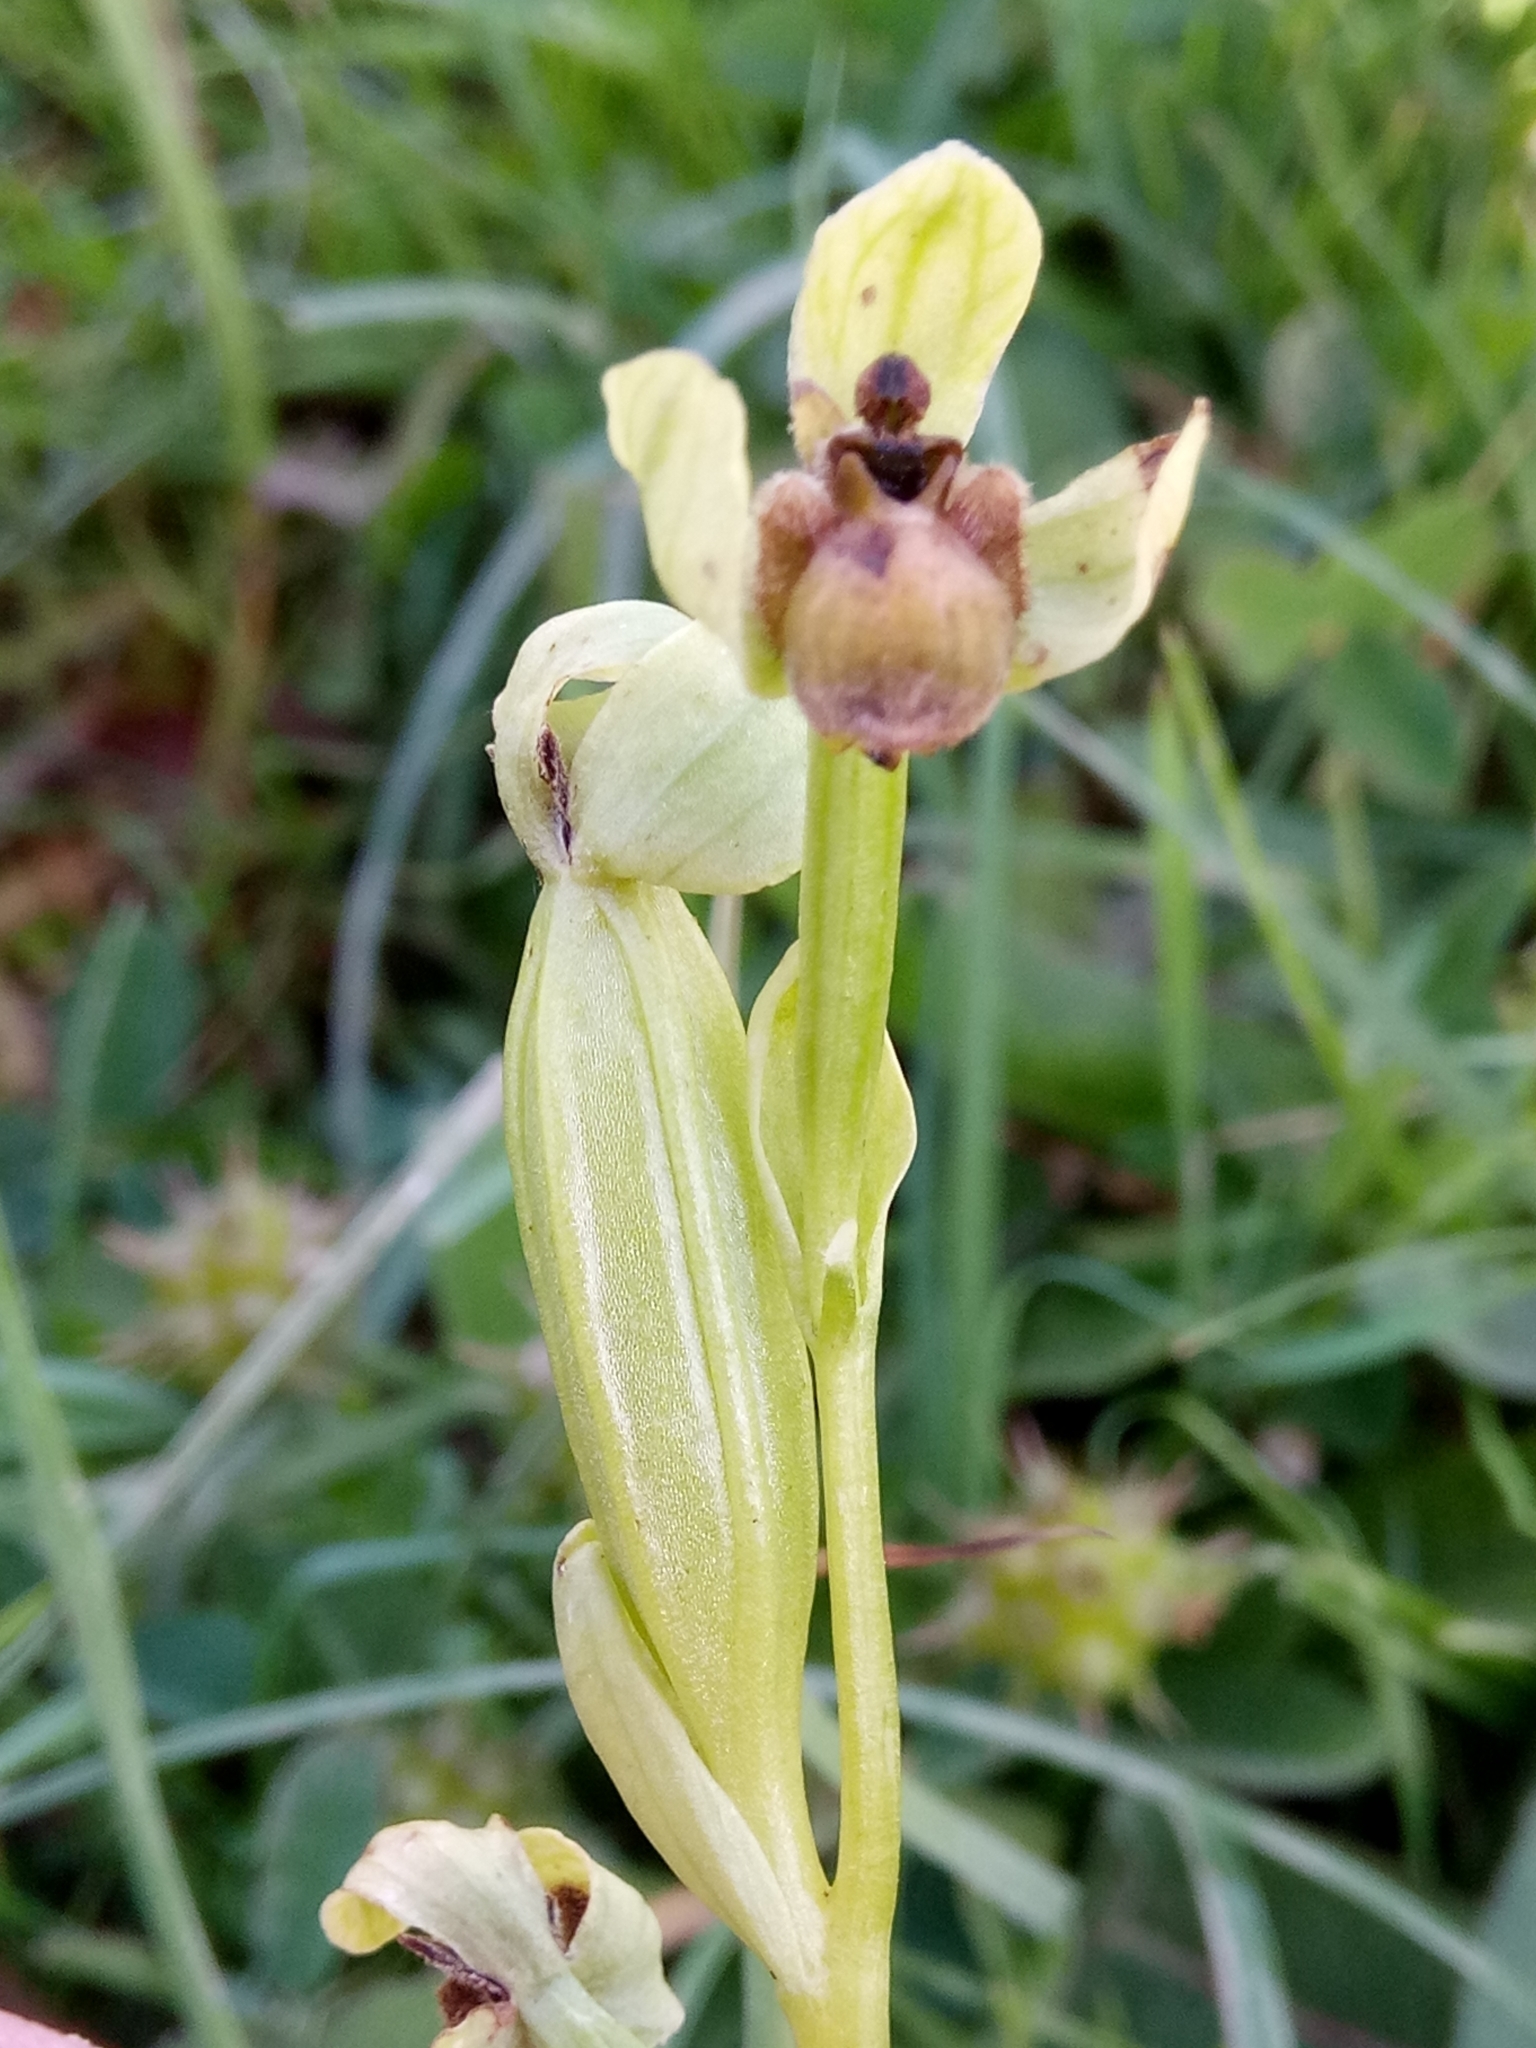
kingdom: Plantae
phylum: Tracheophyta
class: Liliopsida
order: Asparagales
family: Orchidaceae
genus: Ophrys
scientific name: Ophrys bombyliflora
